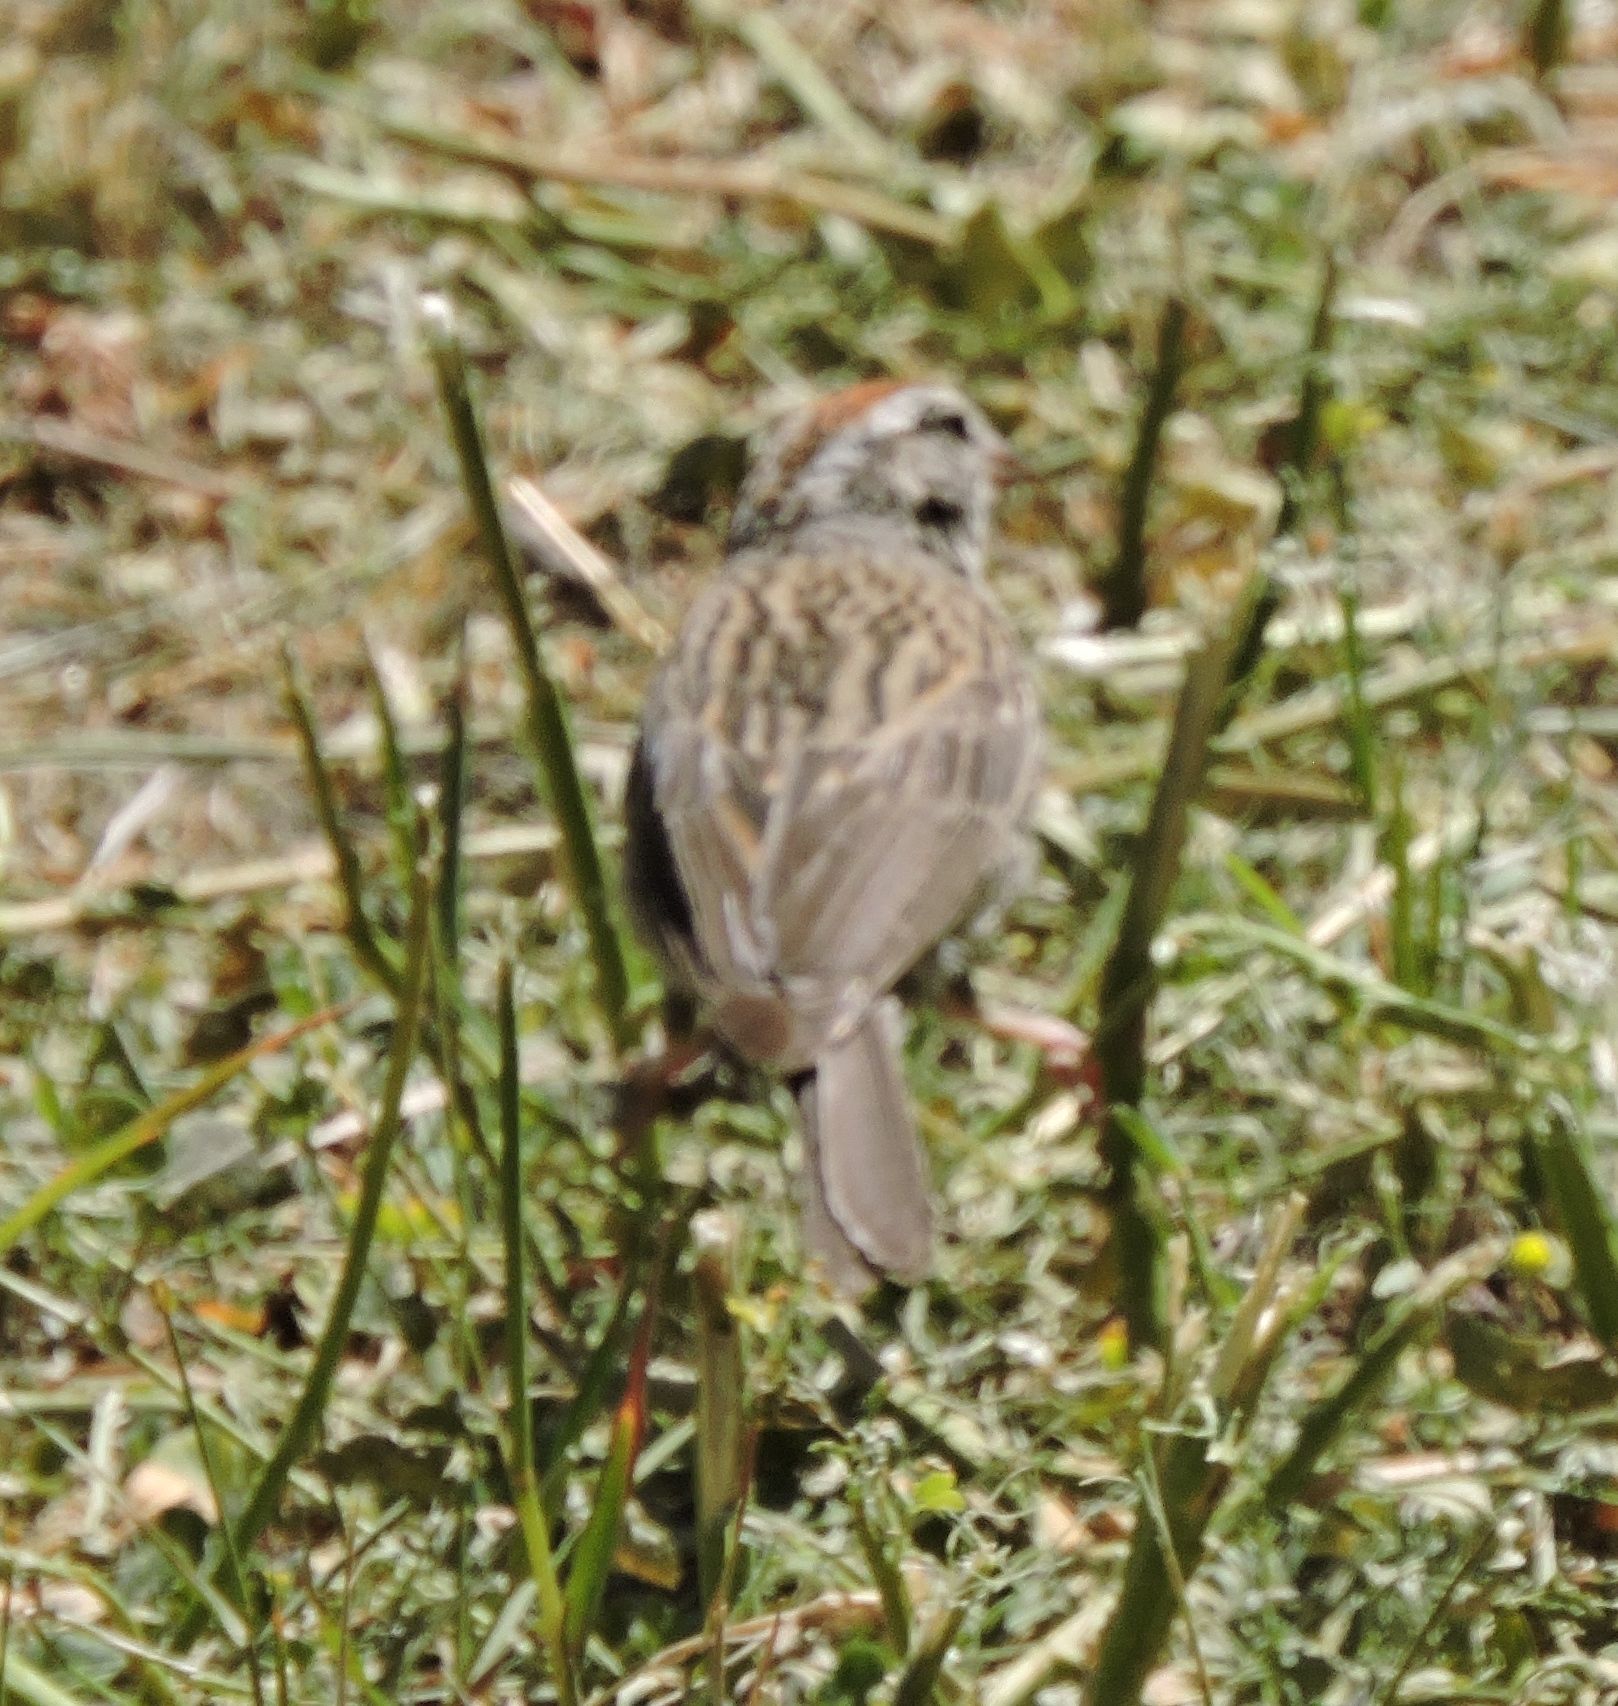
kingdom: Animalia
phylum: Chordata
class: Aves
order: Passeriformes
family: Passerellidae
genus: Spizella
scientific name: Spizella passerina
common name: Chipping sparrow
